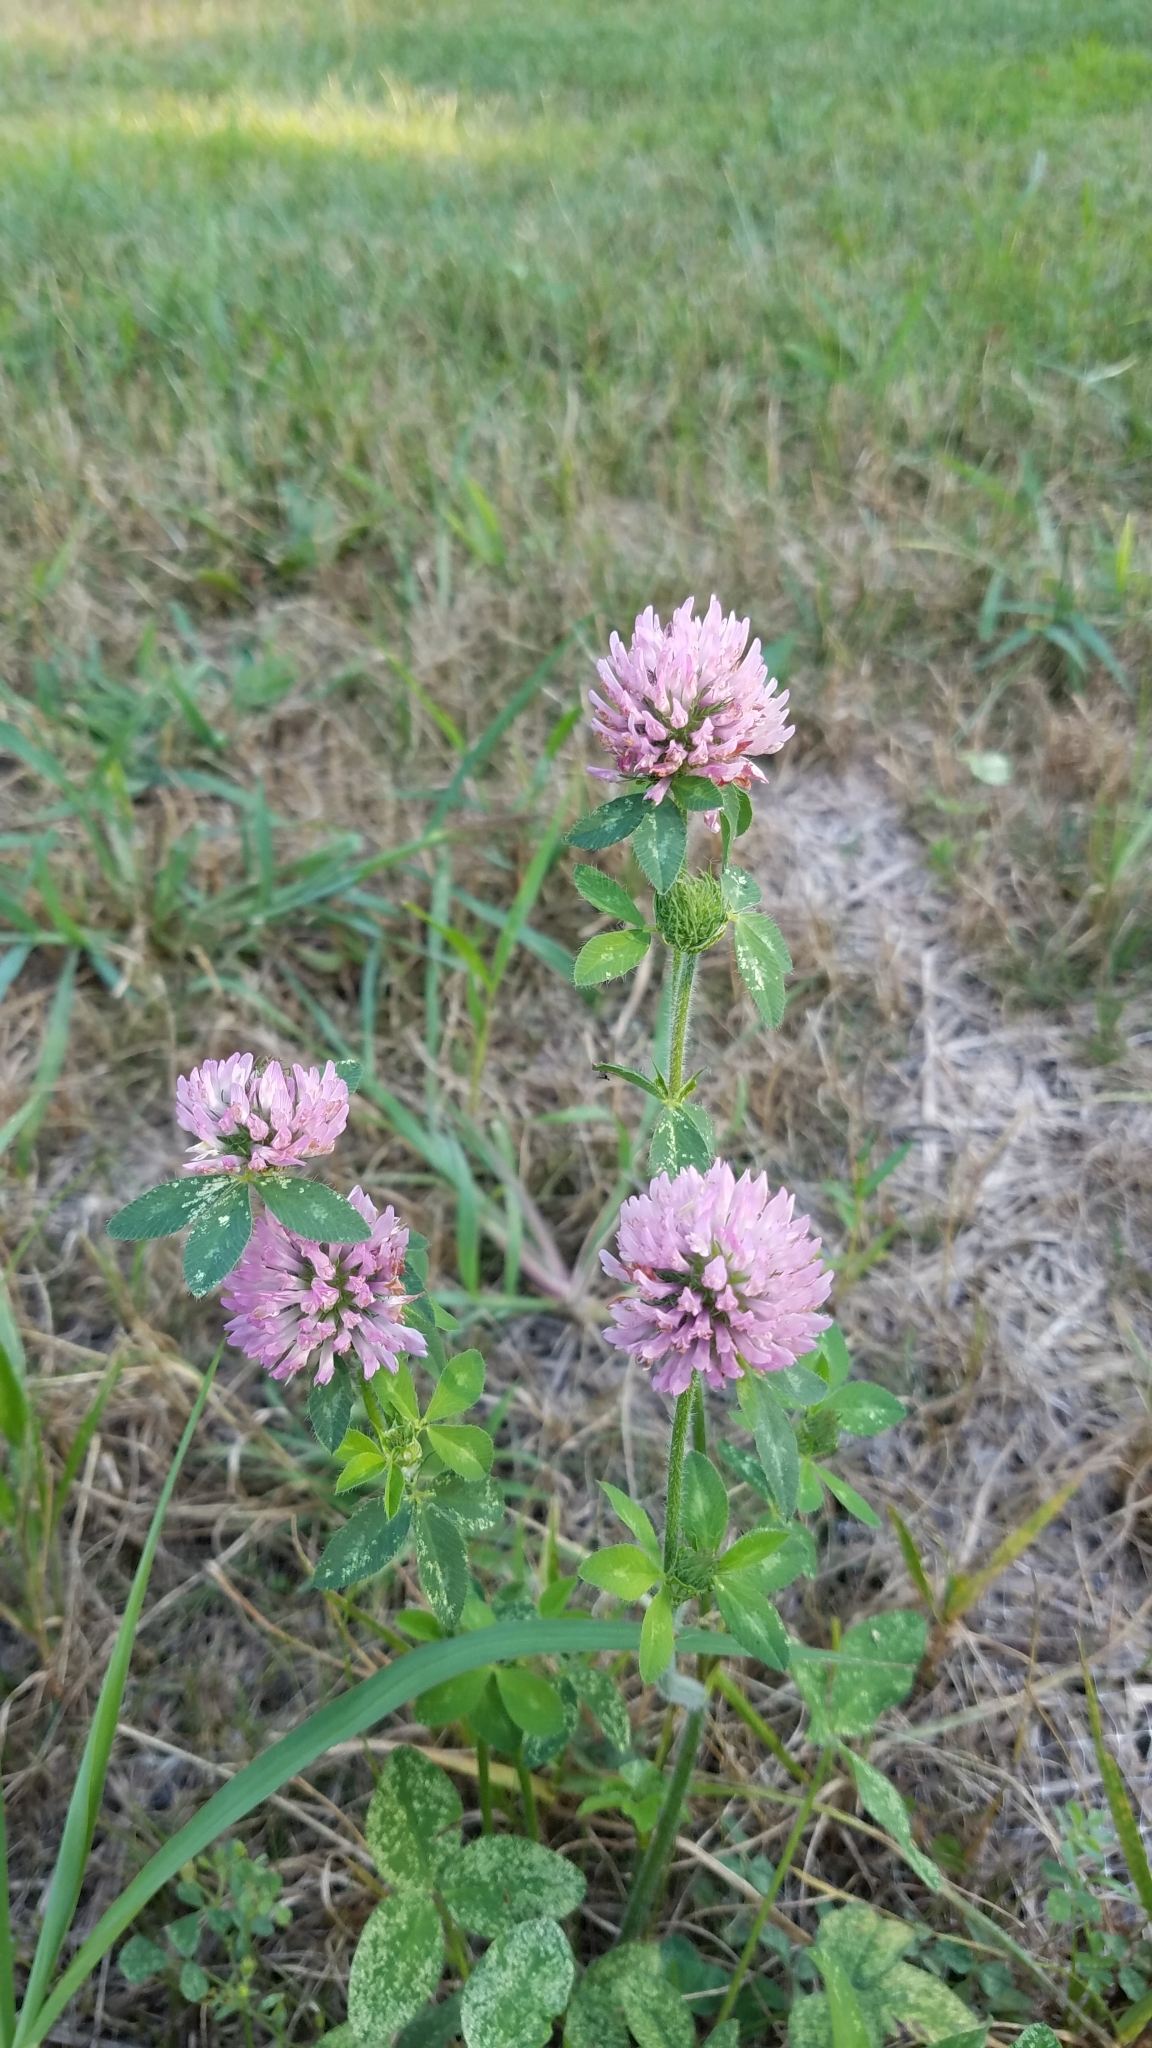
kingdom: Plantae
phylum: Tracheophyta
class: Magnoliopsida
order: Fabales
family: Fabaceae
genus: Trifolium
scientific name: Trifolium pratense
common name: Red clover
